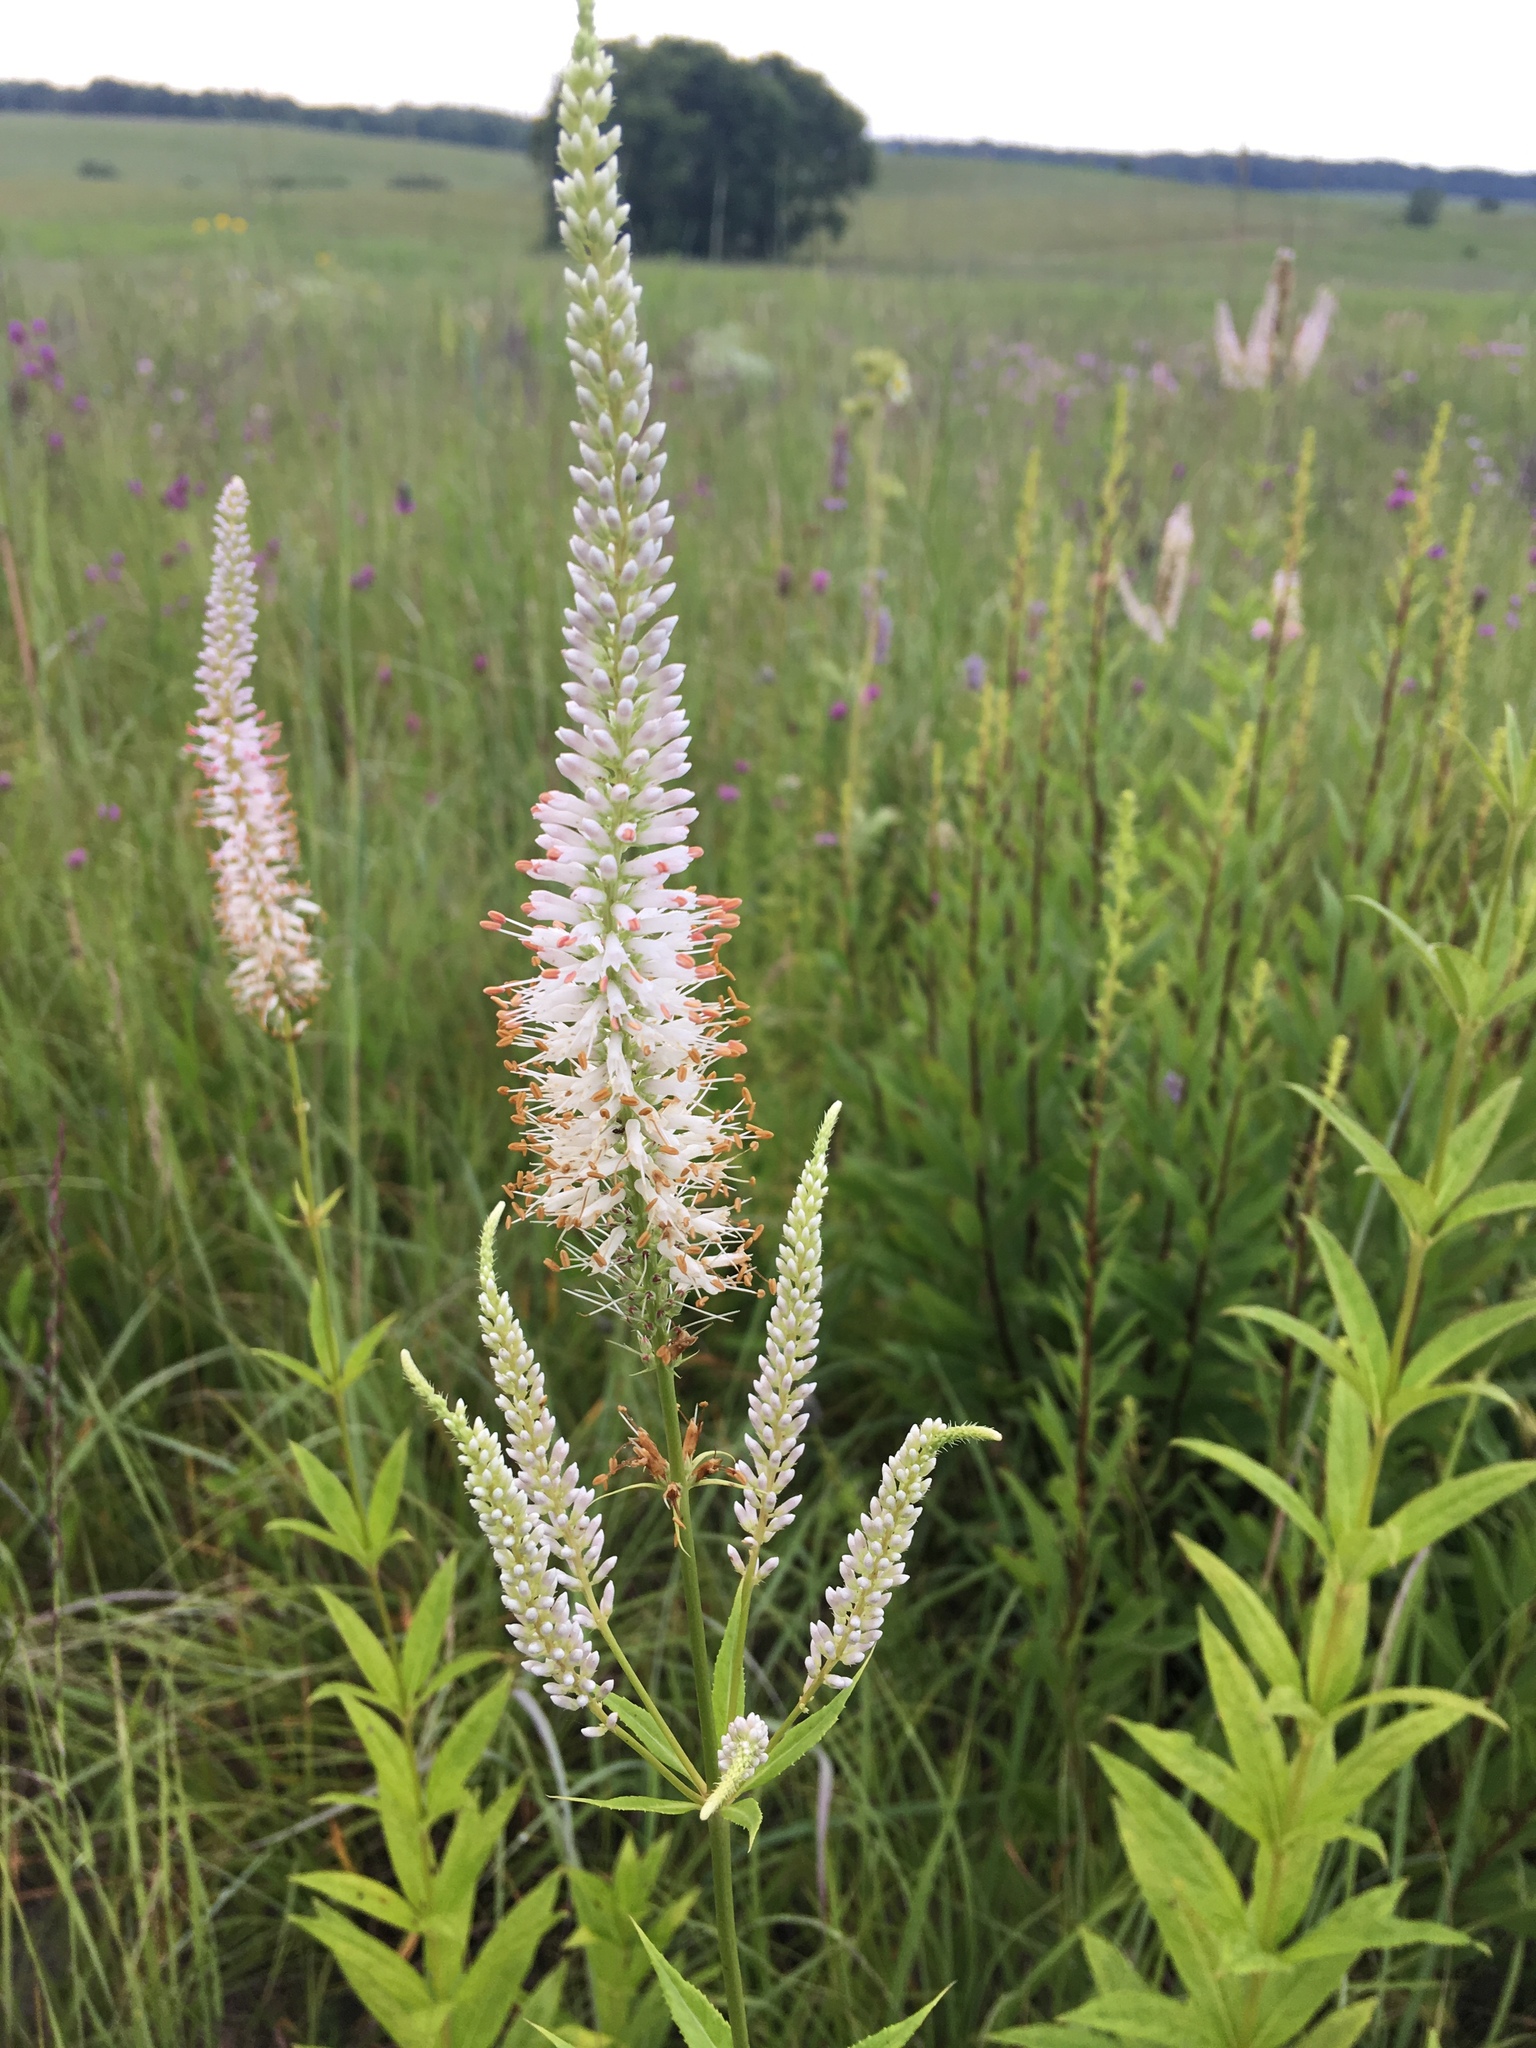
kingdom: Plantae
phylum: Tracheophyta
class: Magnoliopsida
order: Lamiales
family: Plantaginaceae
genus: Veronicastrum
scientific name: Veronicastrum virginicum
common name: Blackroot
